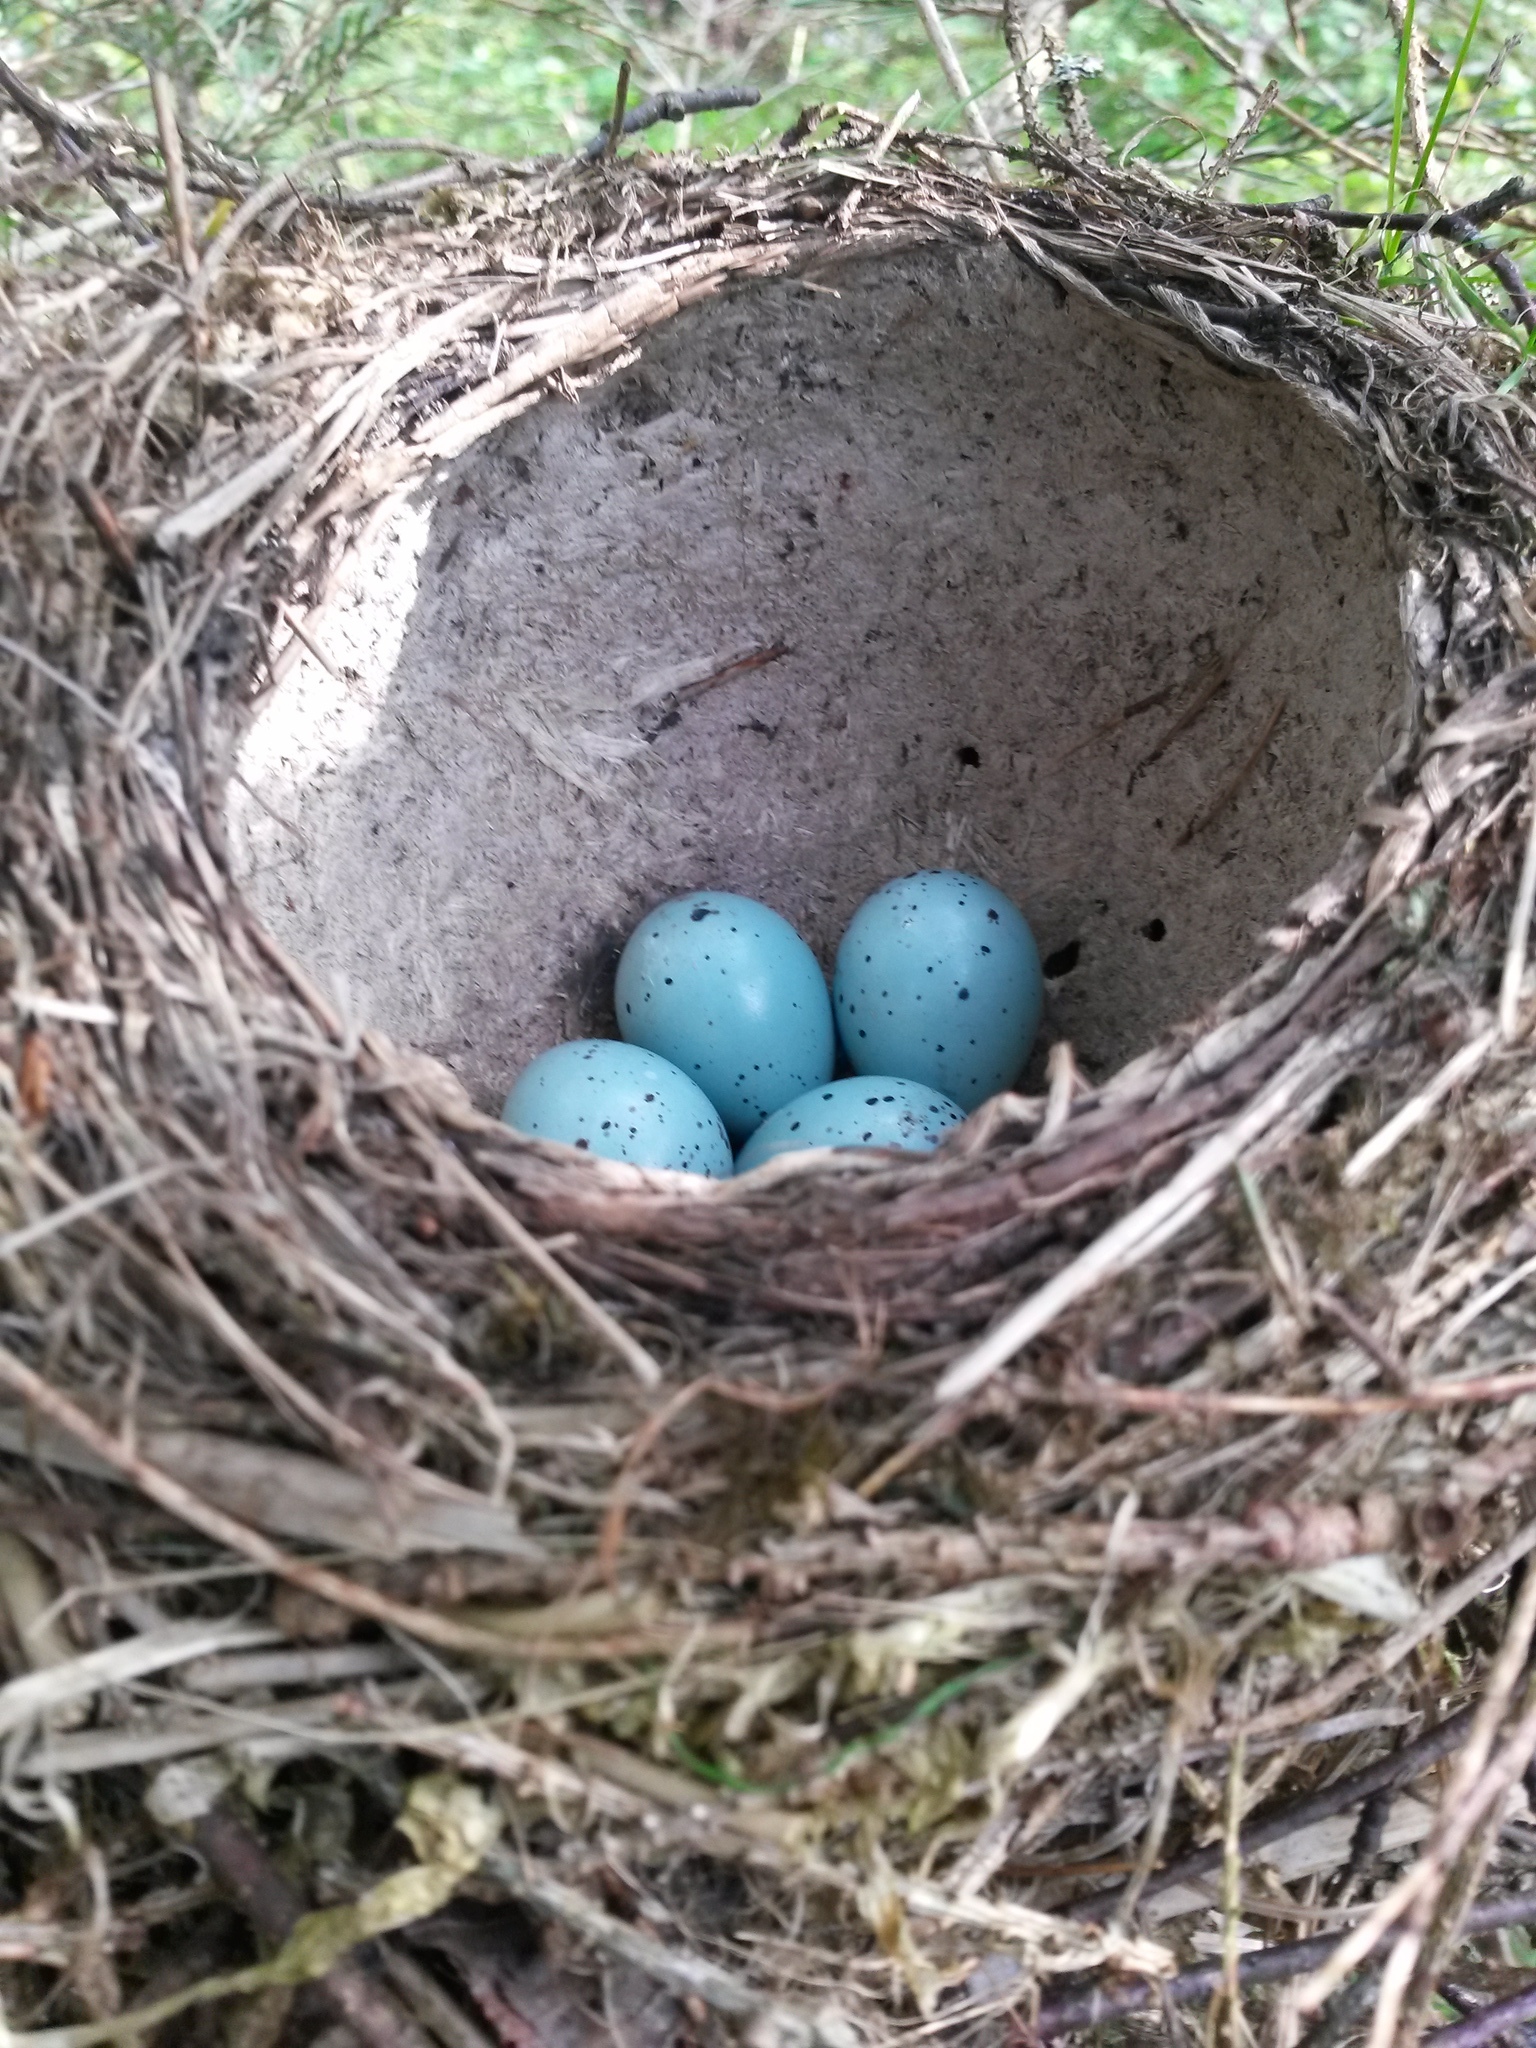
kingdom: Animalia
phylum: Chordata
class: Aves
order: Passeriformes
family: Turdidae
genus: Turdus
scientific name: Turdus philomelos
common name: Song thrush
